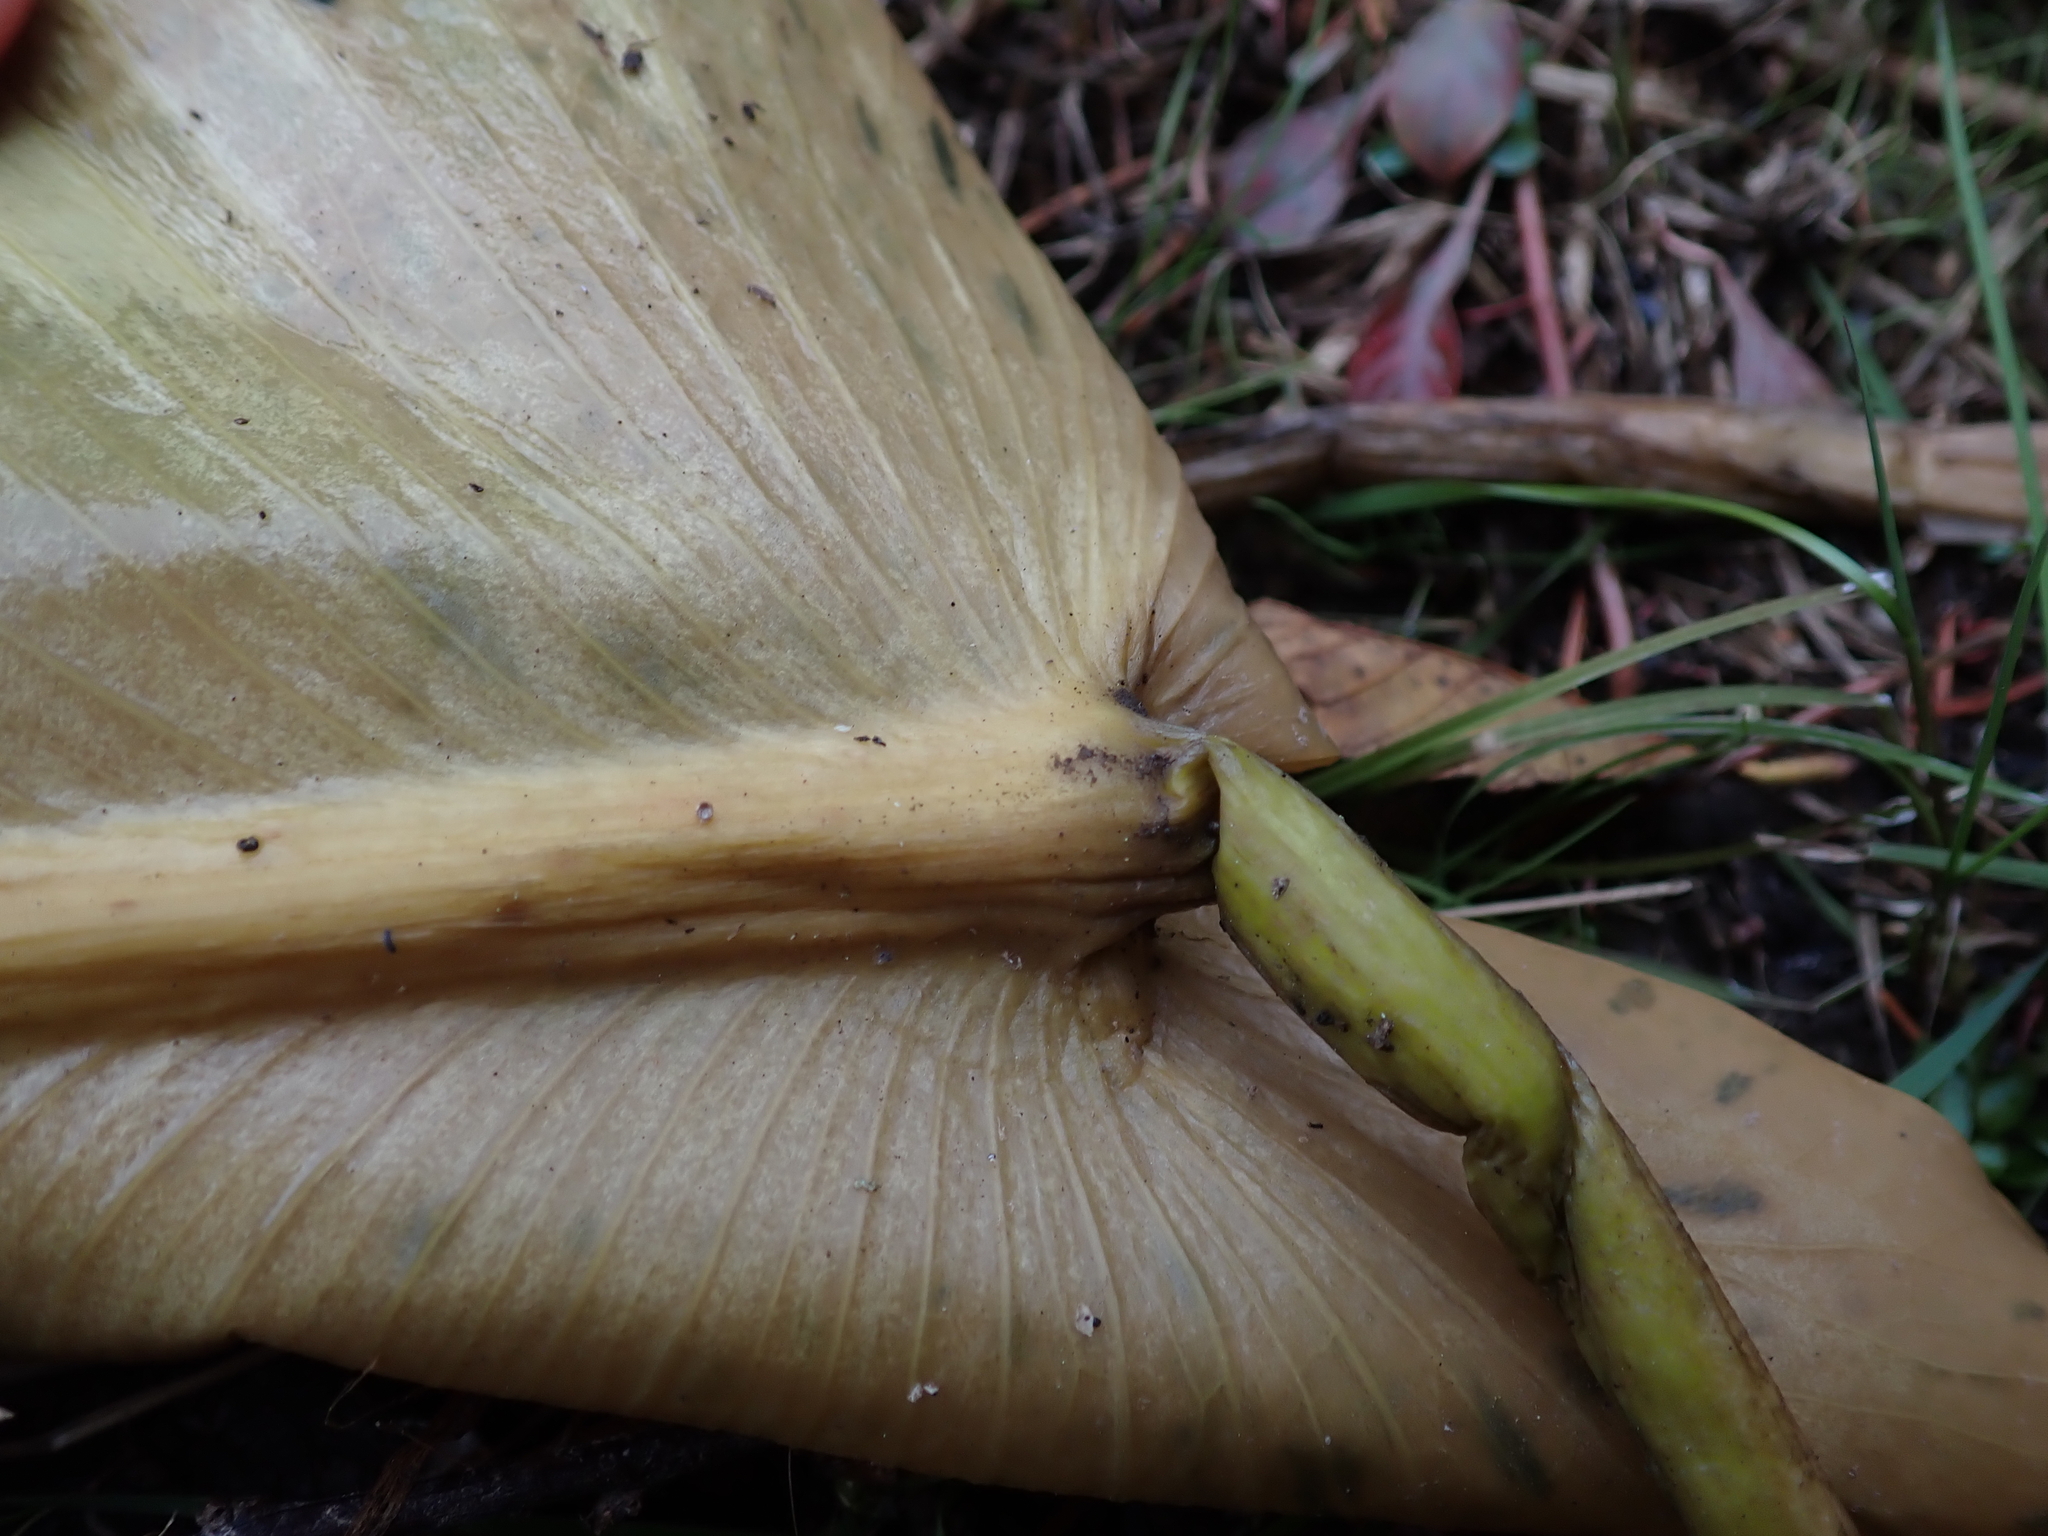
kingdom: Plantae
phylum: Tracheophyta
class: Magnoliopsida
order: Nymphaeales
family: Nymphaeaceae
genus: Nuphar
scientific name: Nuphar polysepala
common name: Rocky mountain cow-lily
